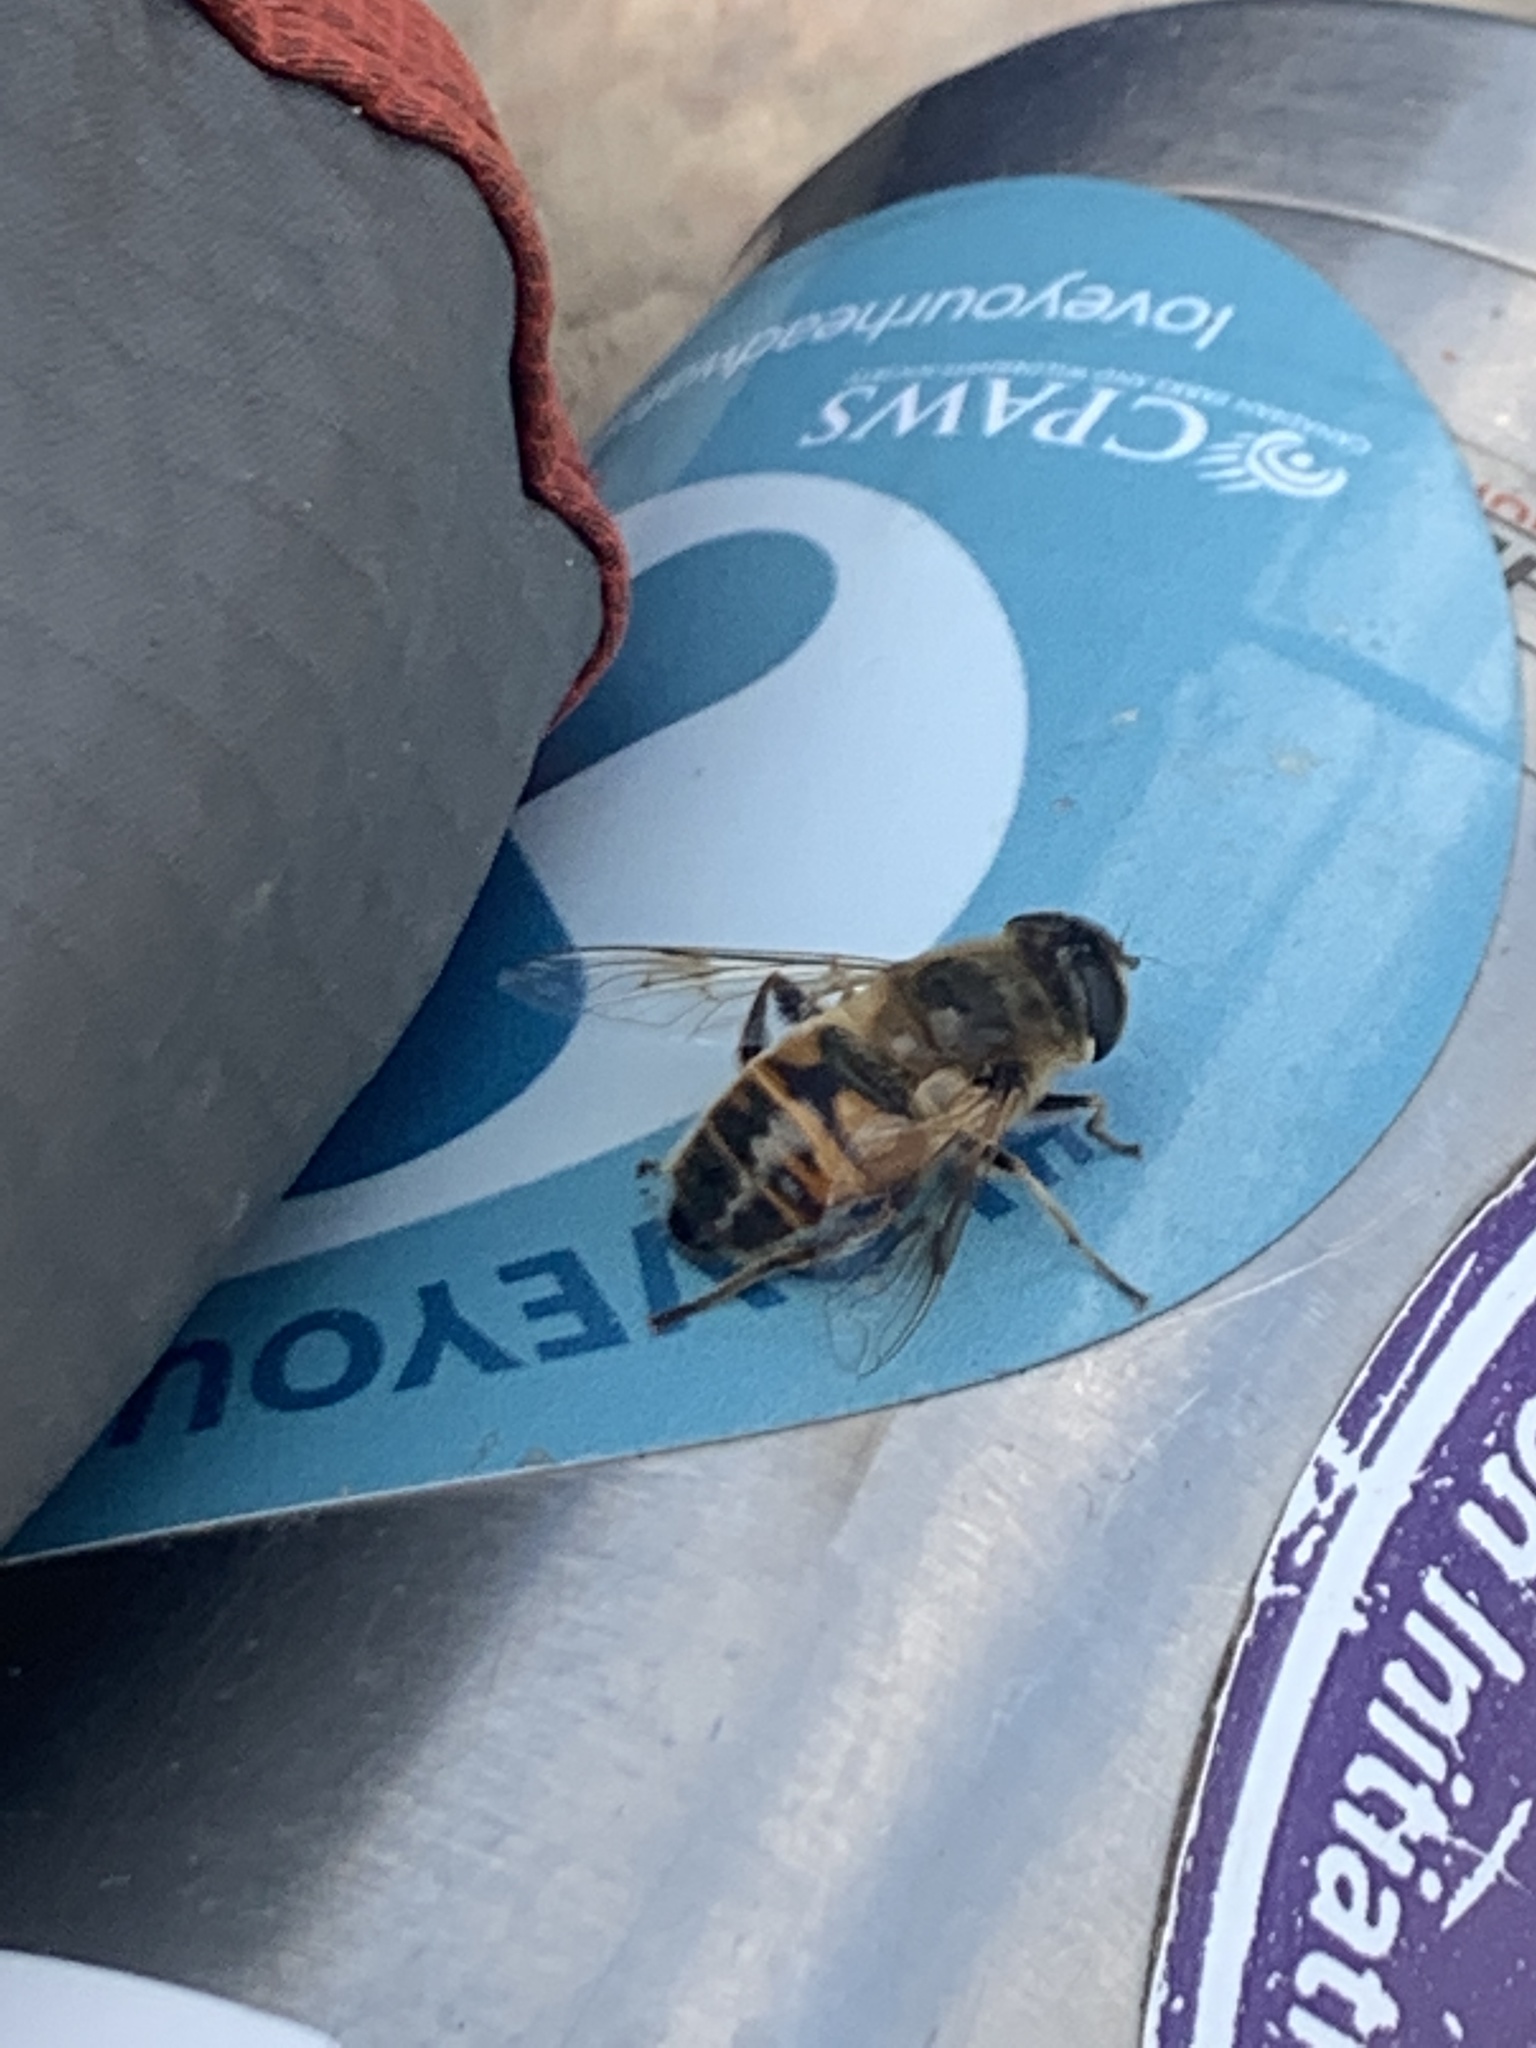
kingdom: Animalia
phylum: Arthropoda
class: Insecta
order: Diptera
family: Syrphidae
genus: Eristalis
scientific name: Eristalis tenax
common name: Drone fly
